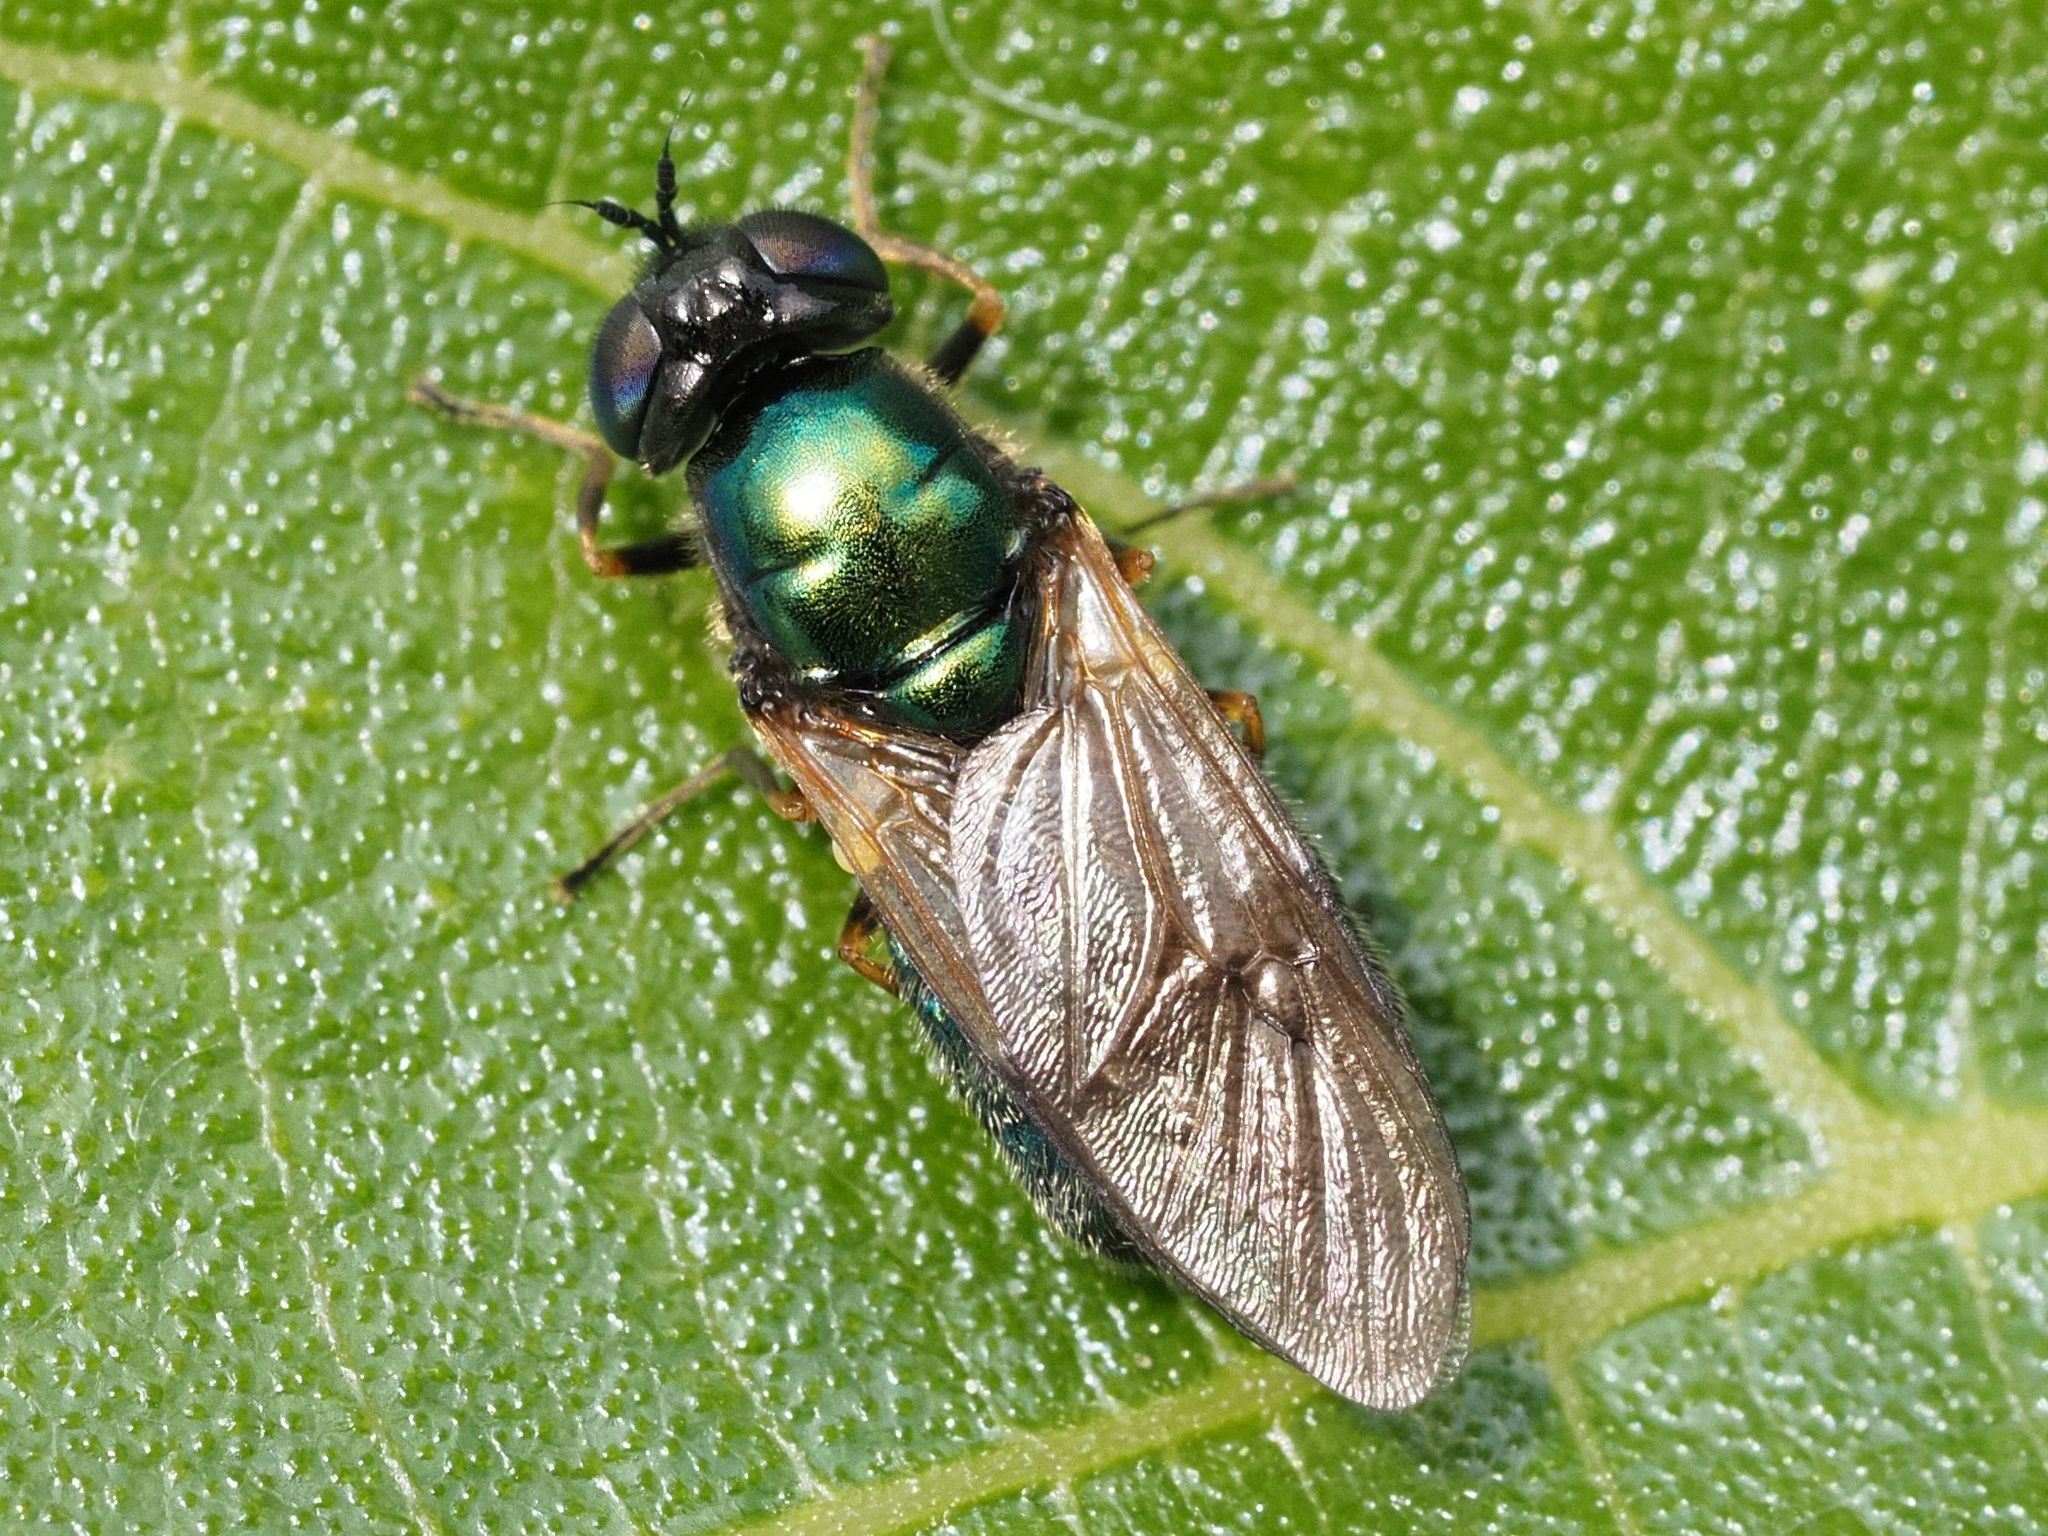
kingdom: Animalia
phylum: Arthropoda
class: Insecta
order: Diptera
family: Stratiomyidae
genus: Chloromyia
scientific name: Chloromyia formosa
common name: Soldier fly
